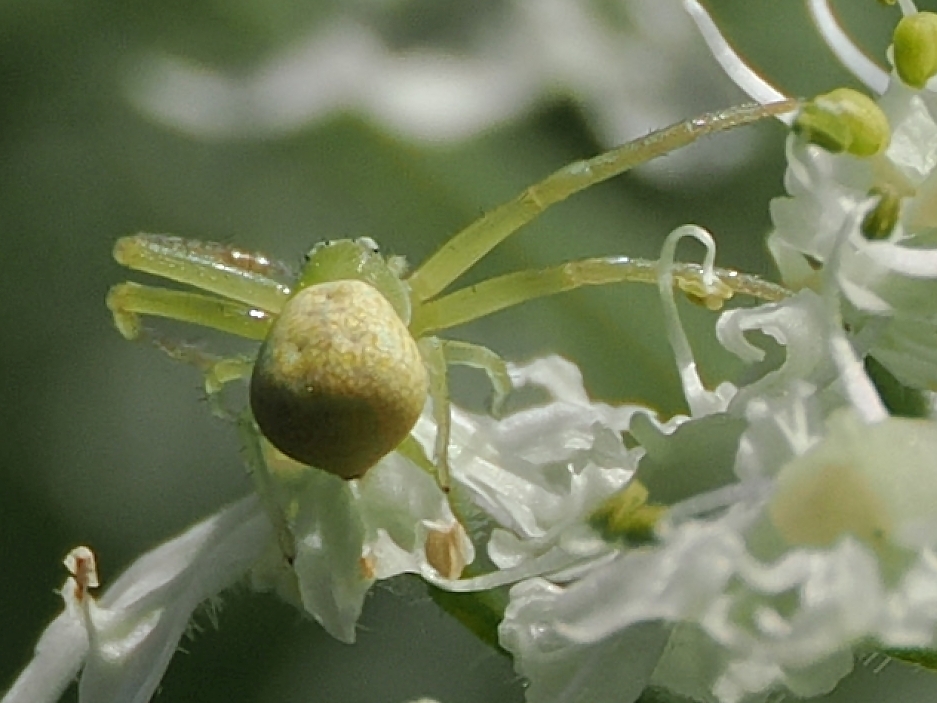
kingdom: Animalia
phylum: Arthropoda
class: Arachnida
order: Araneae
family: Thomisidae
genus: Ebrechtella
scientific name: Ebrechtella tricuspidata
